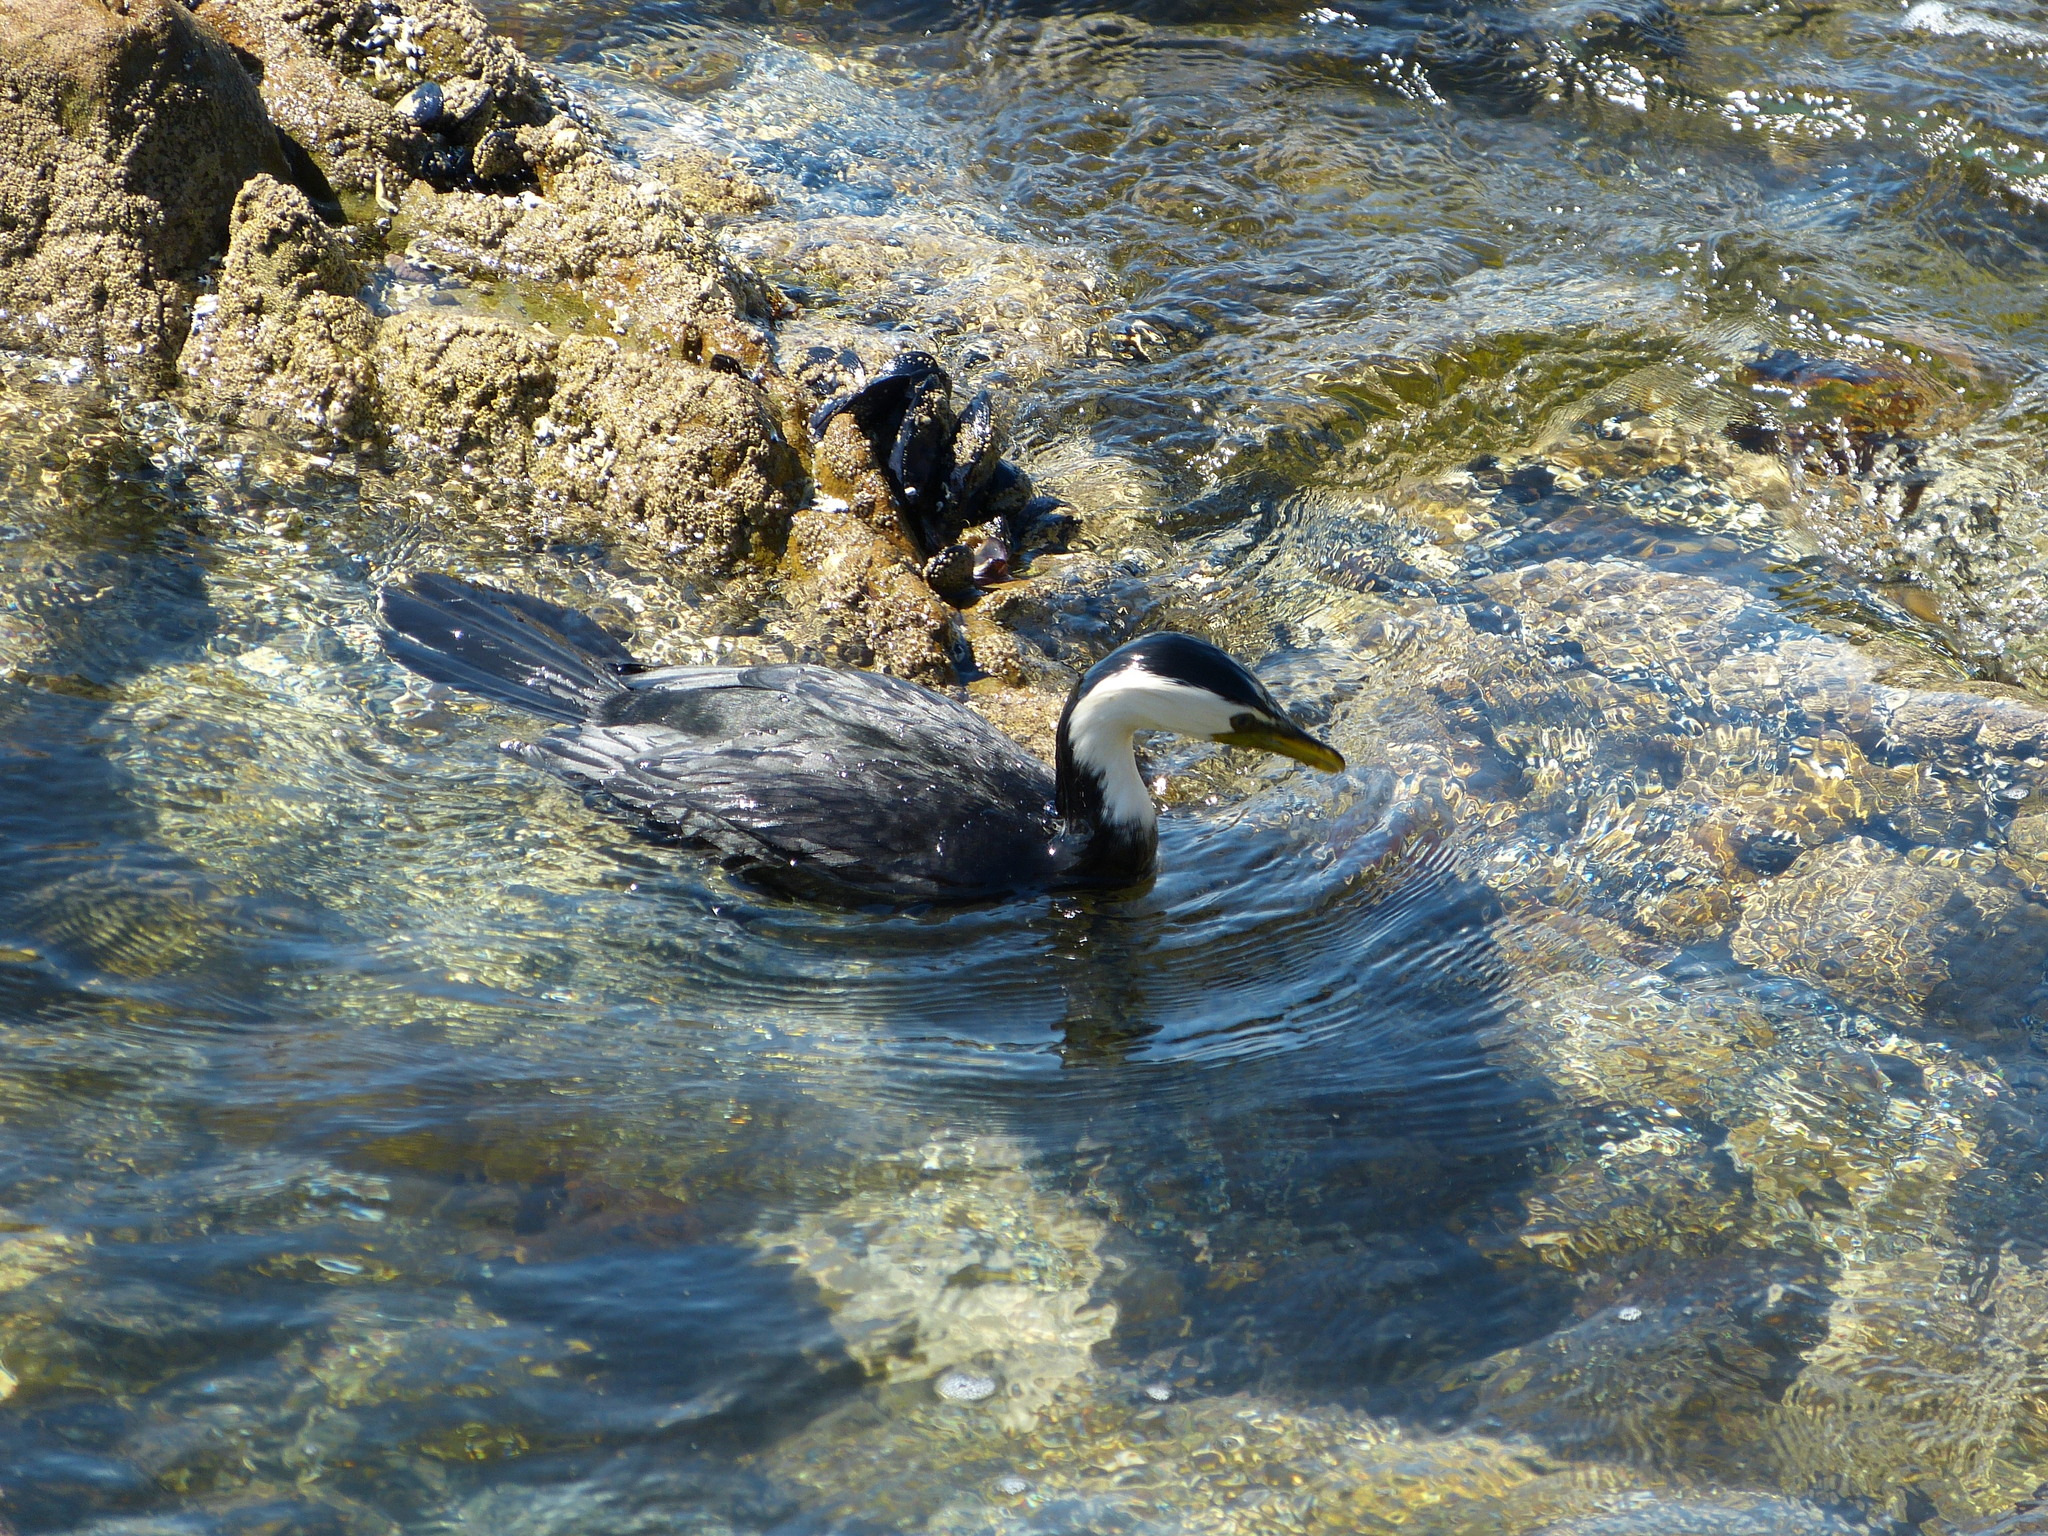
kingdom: Animalia
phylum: Chordata
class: Aves
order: Suliformes
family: Phalacrocoracidae
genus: Microcarbo
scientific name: Microcarbo melanoleucos
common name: Little pied cormorant
